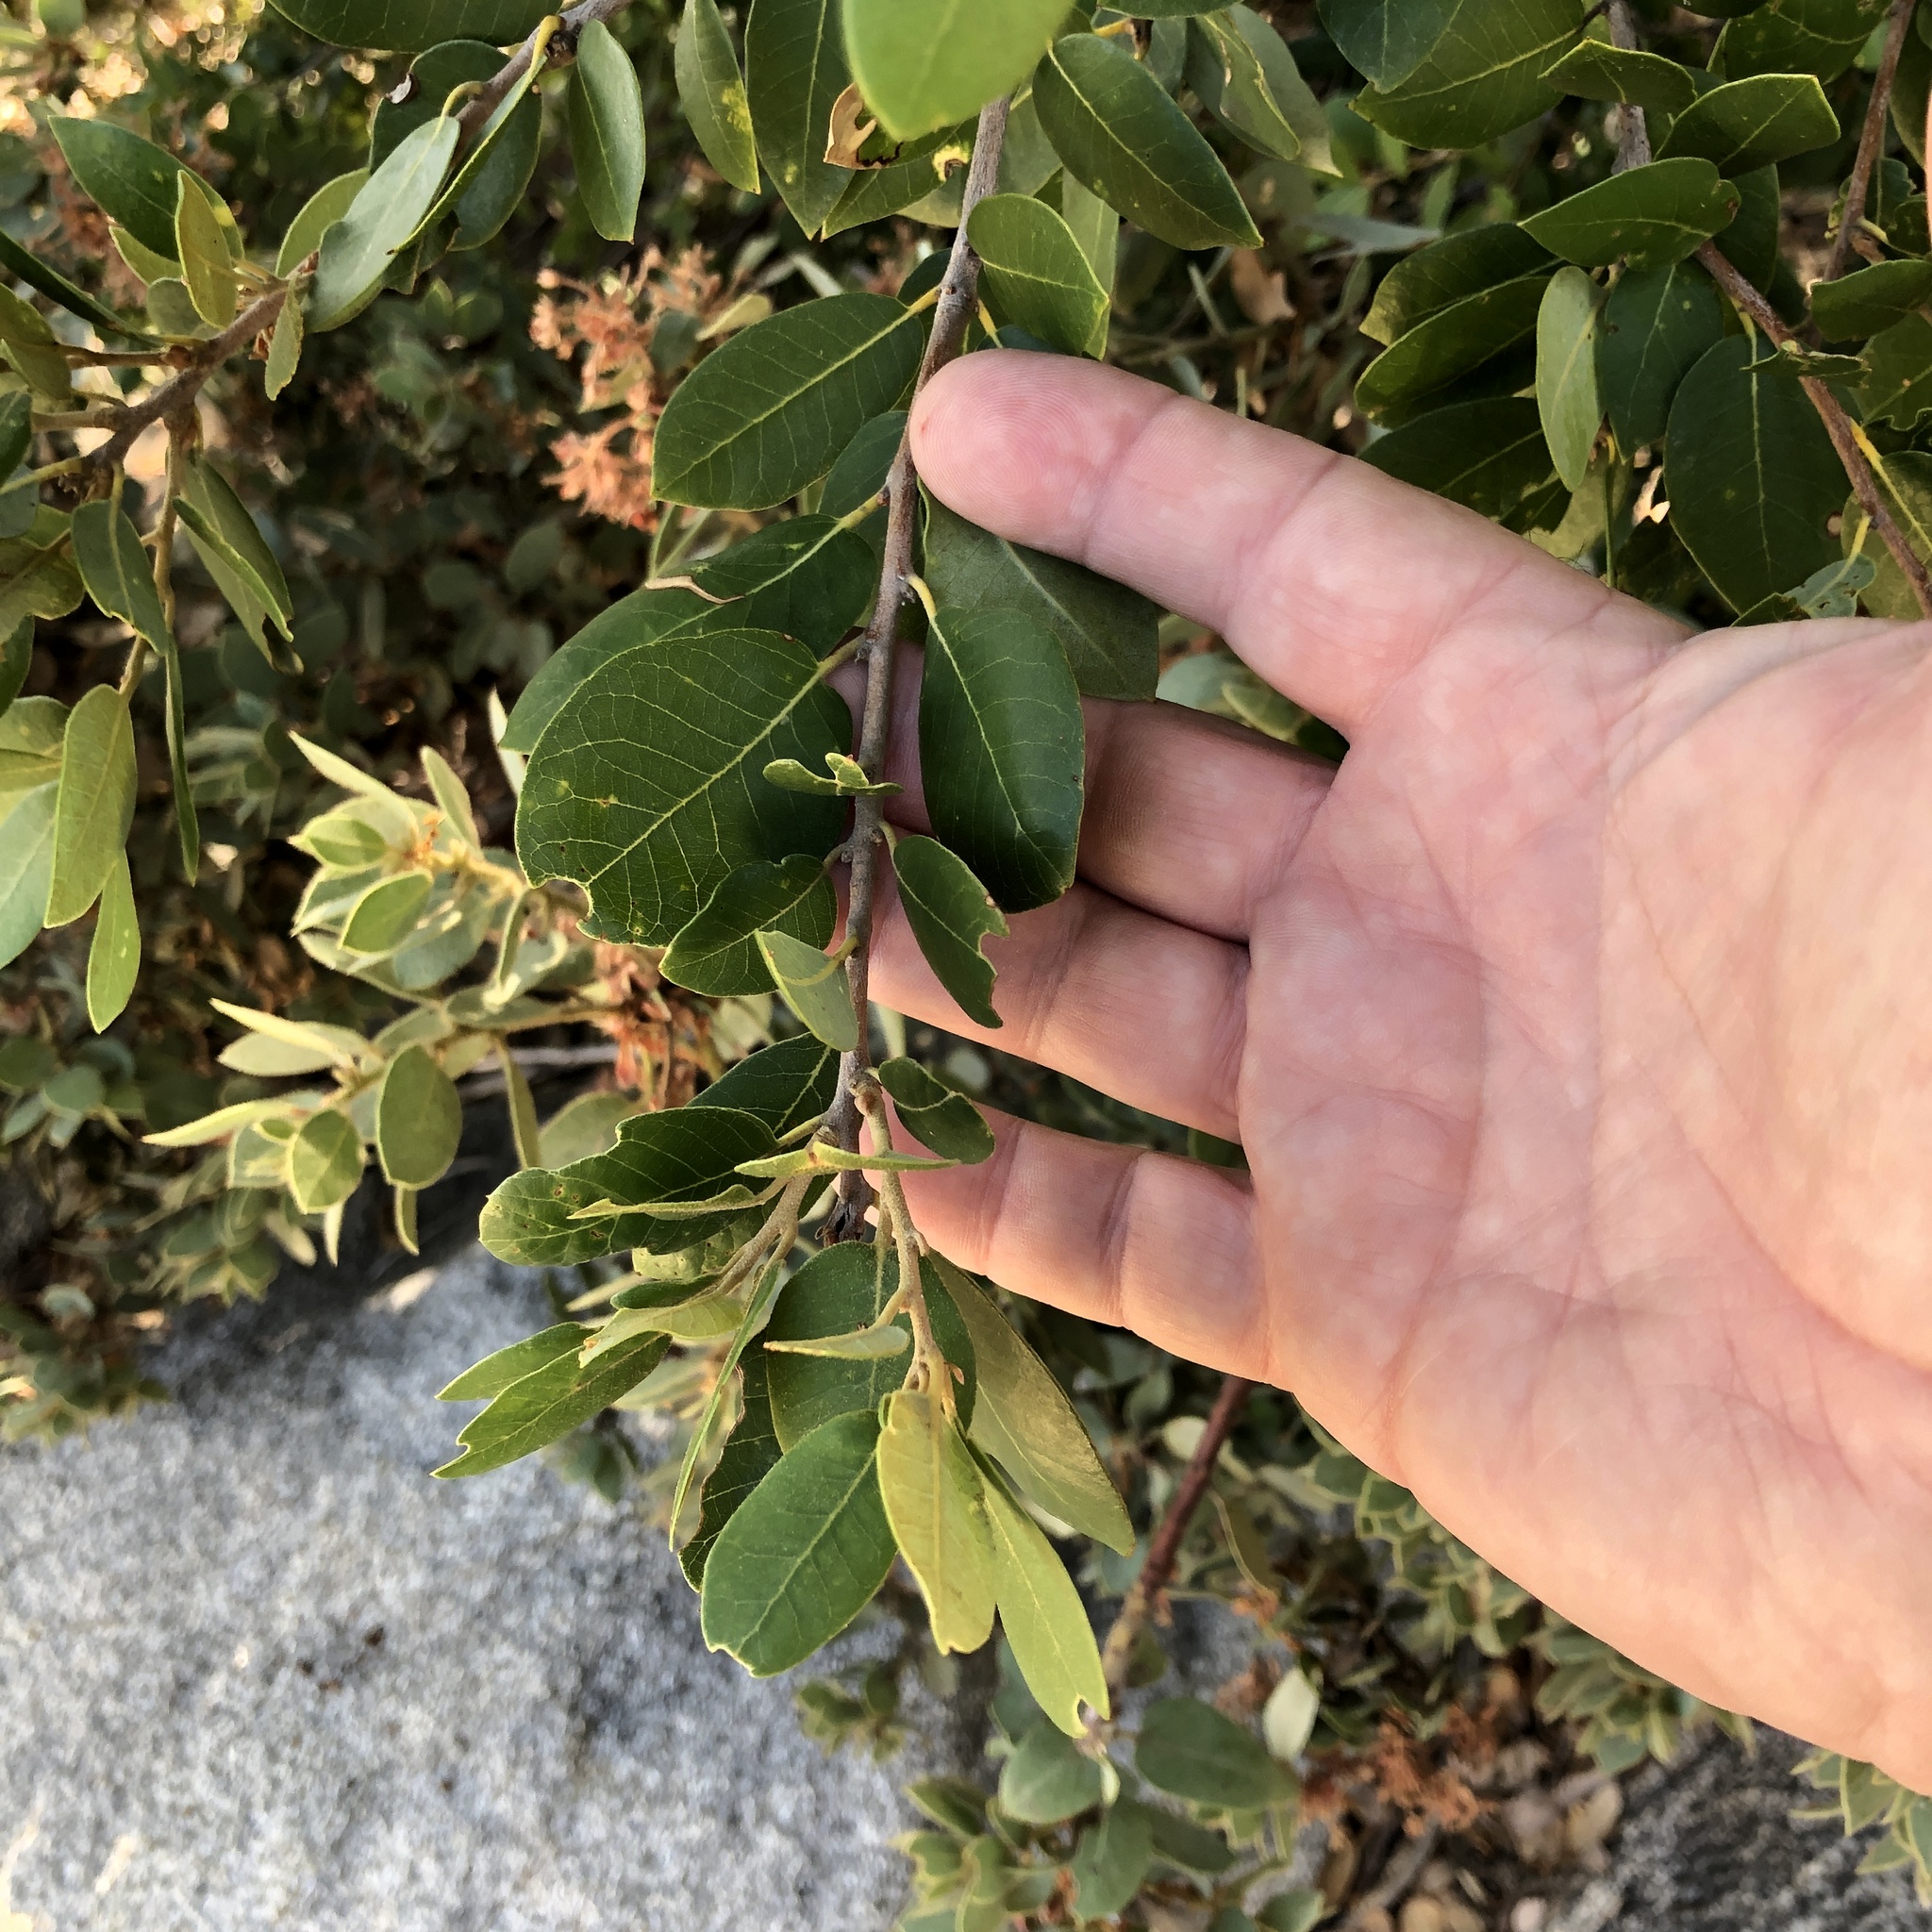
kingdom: Plantae
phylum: Tracheophyta
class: Magnoliopsida
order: Fagales
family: Fagaceae
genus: Quercus
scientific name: Quercus chrysolepis
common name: Canyon live oak
